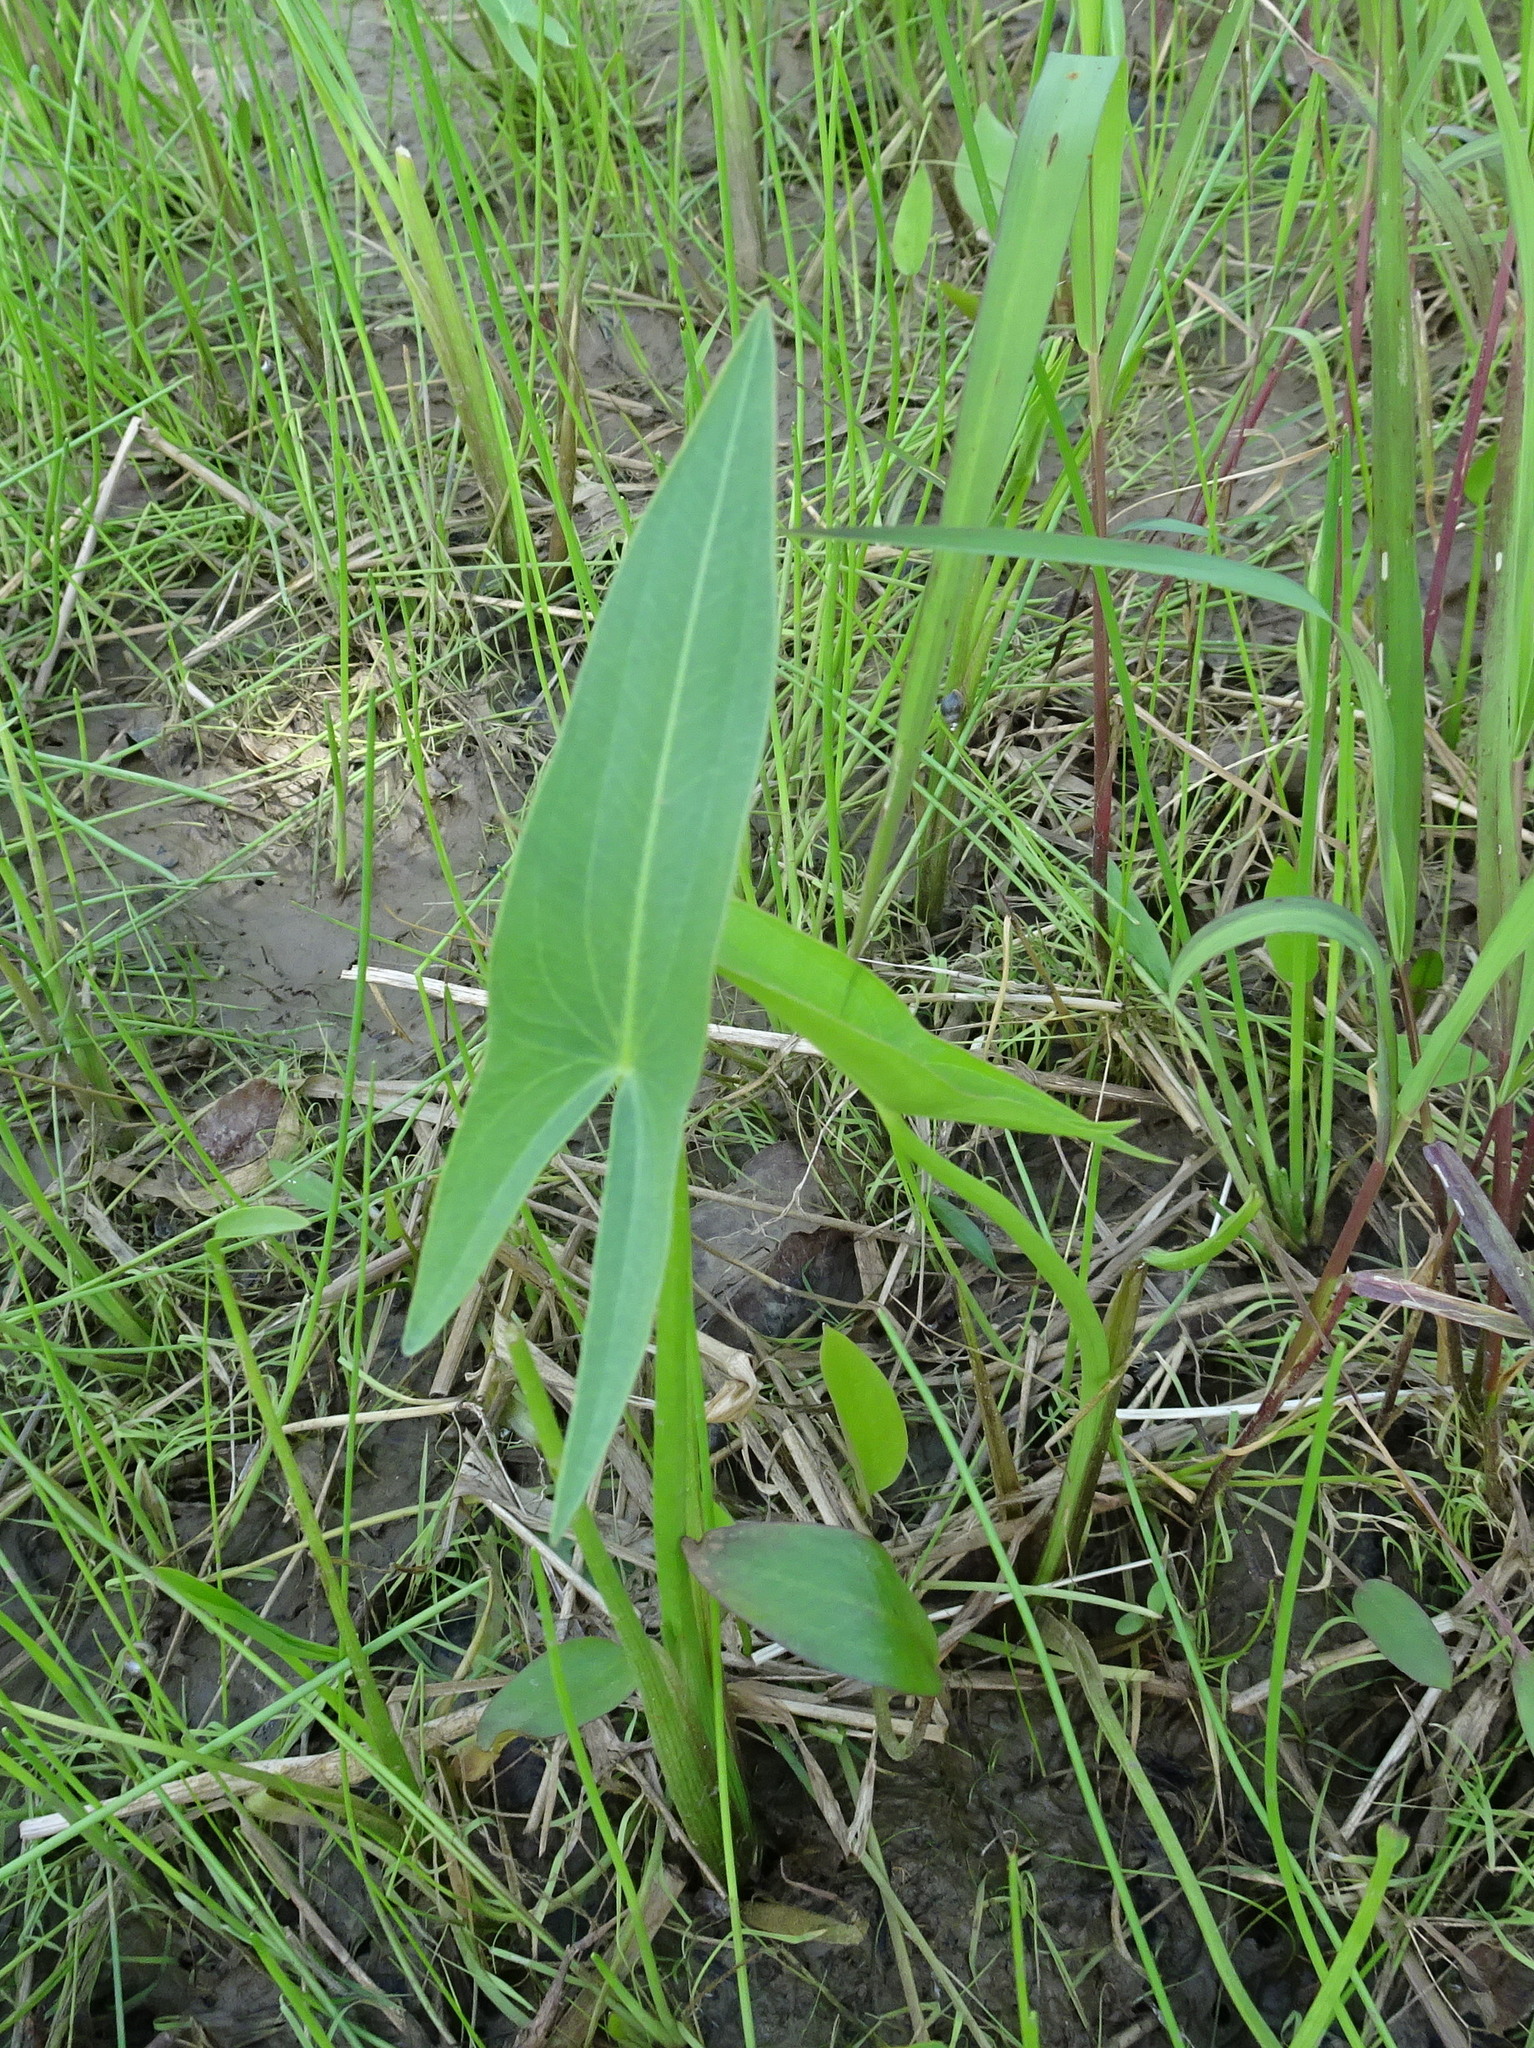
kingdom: Plantae
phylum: Tracheophyta
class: Liliopsida
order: Alismatales
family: Alismataceae
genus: Sagittaria
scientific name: Sagittaria
